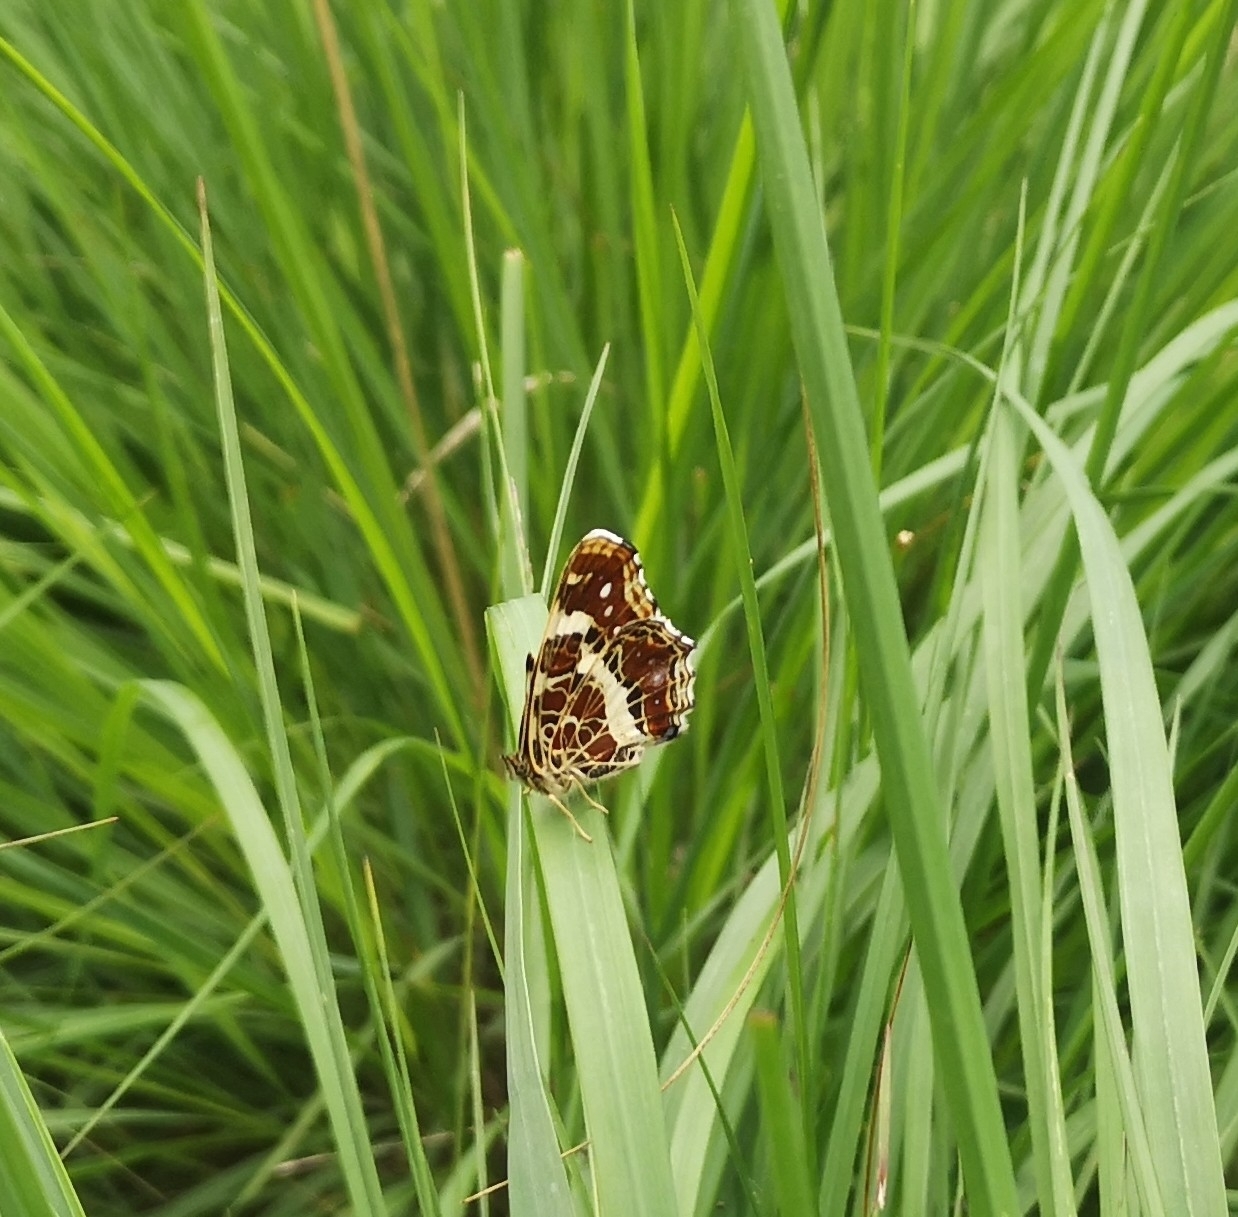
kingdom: Animalia
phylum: Arthropoda
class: Insecta
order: Lepidoptera
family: Nymphalidae
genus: Araschnia
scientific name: Araschnia levana
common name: Map butterfly
